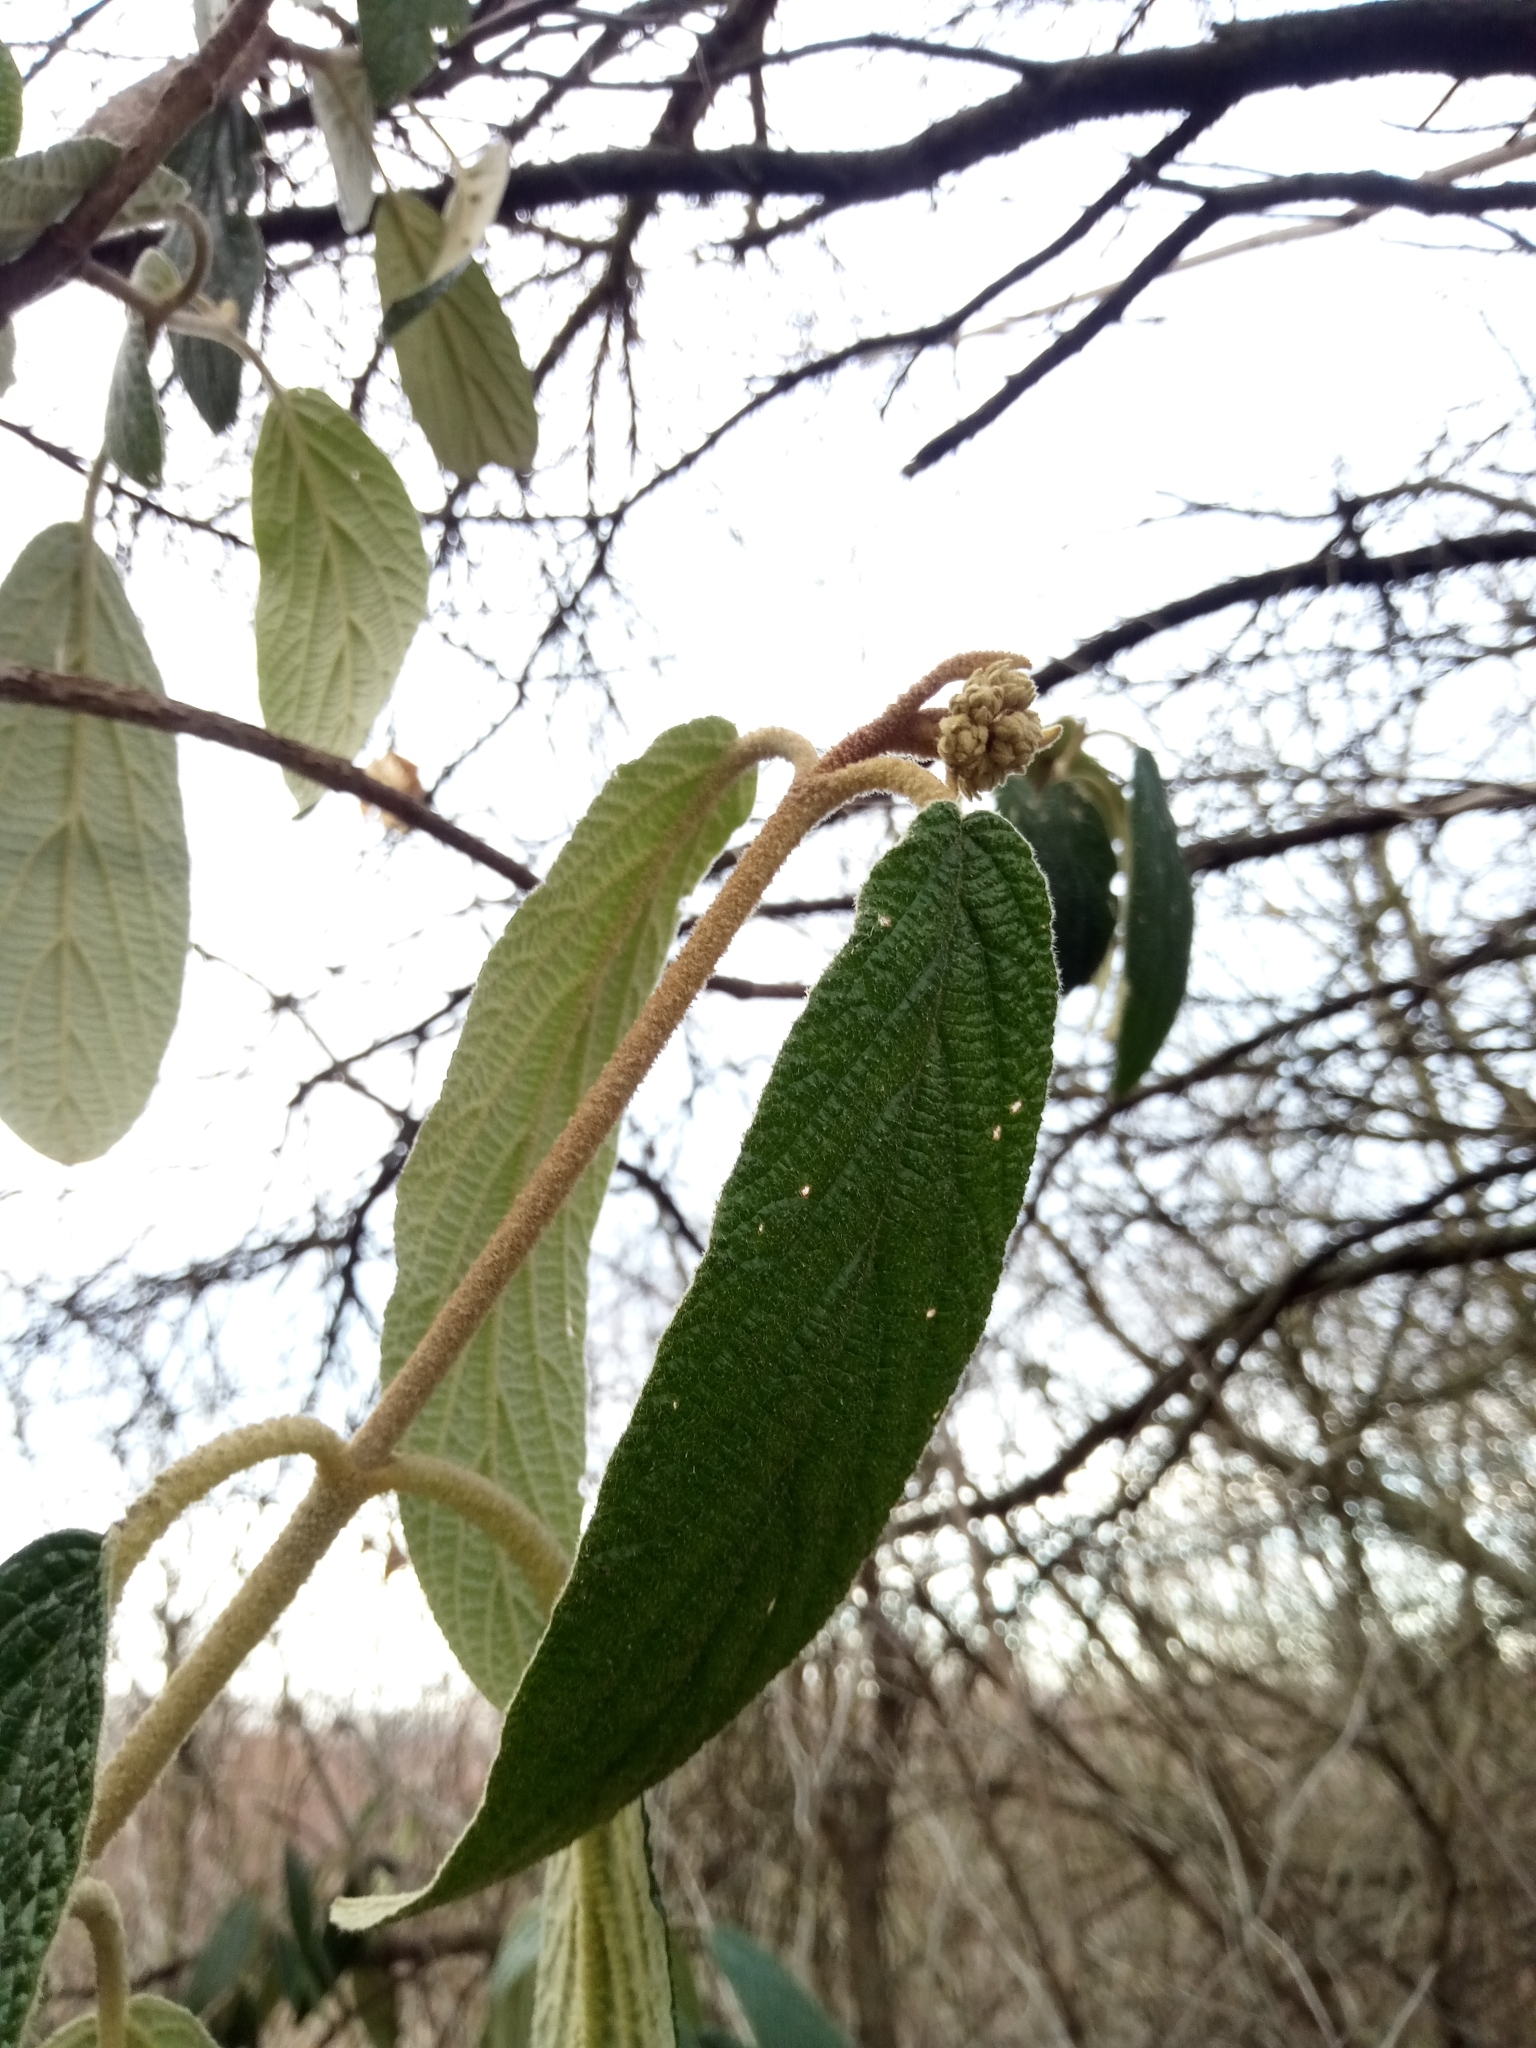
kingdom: Plantae
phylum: Tracheophyta
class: Magnoliopsida
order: Dipsacales
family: Viburnaceae
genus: Viburnum
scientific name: Viburnum rhytidophyllum
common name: Wrinkled viburnum
